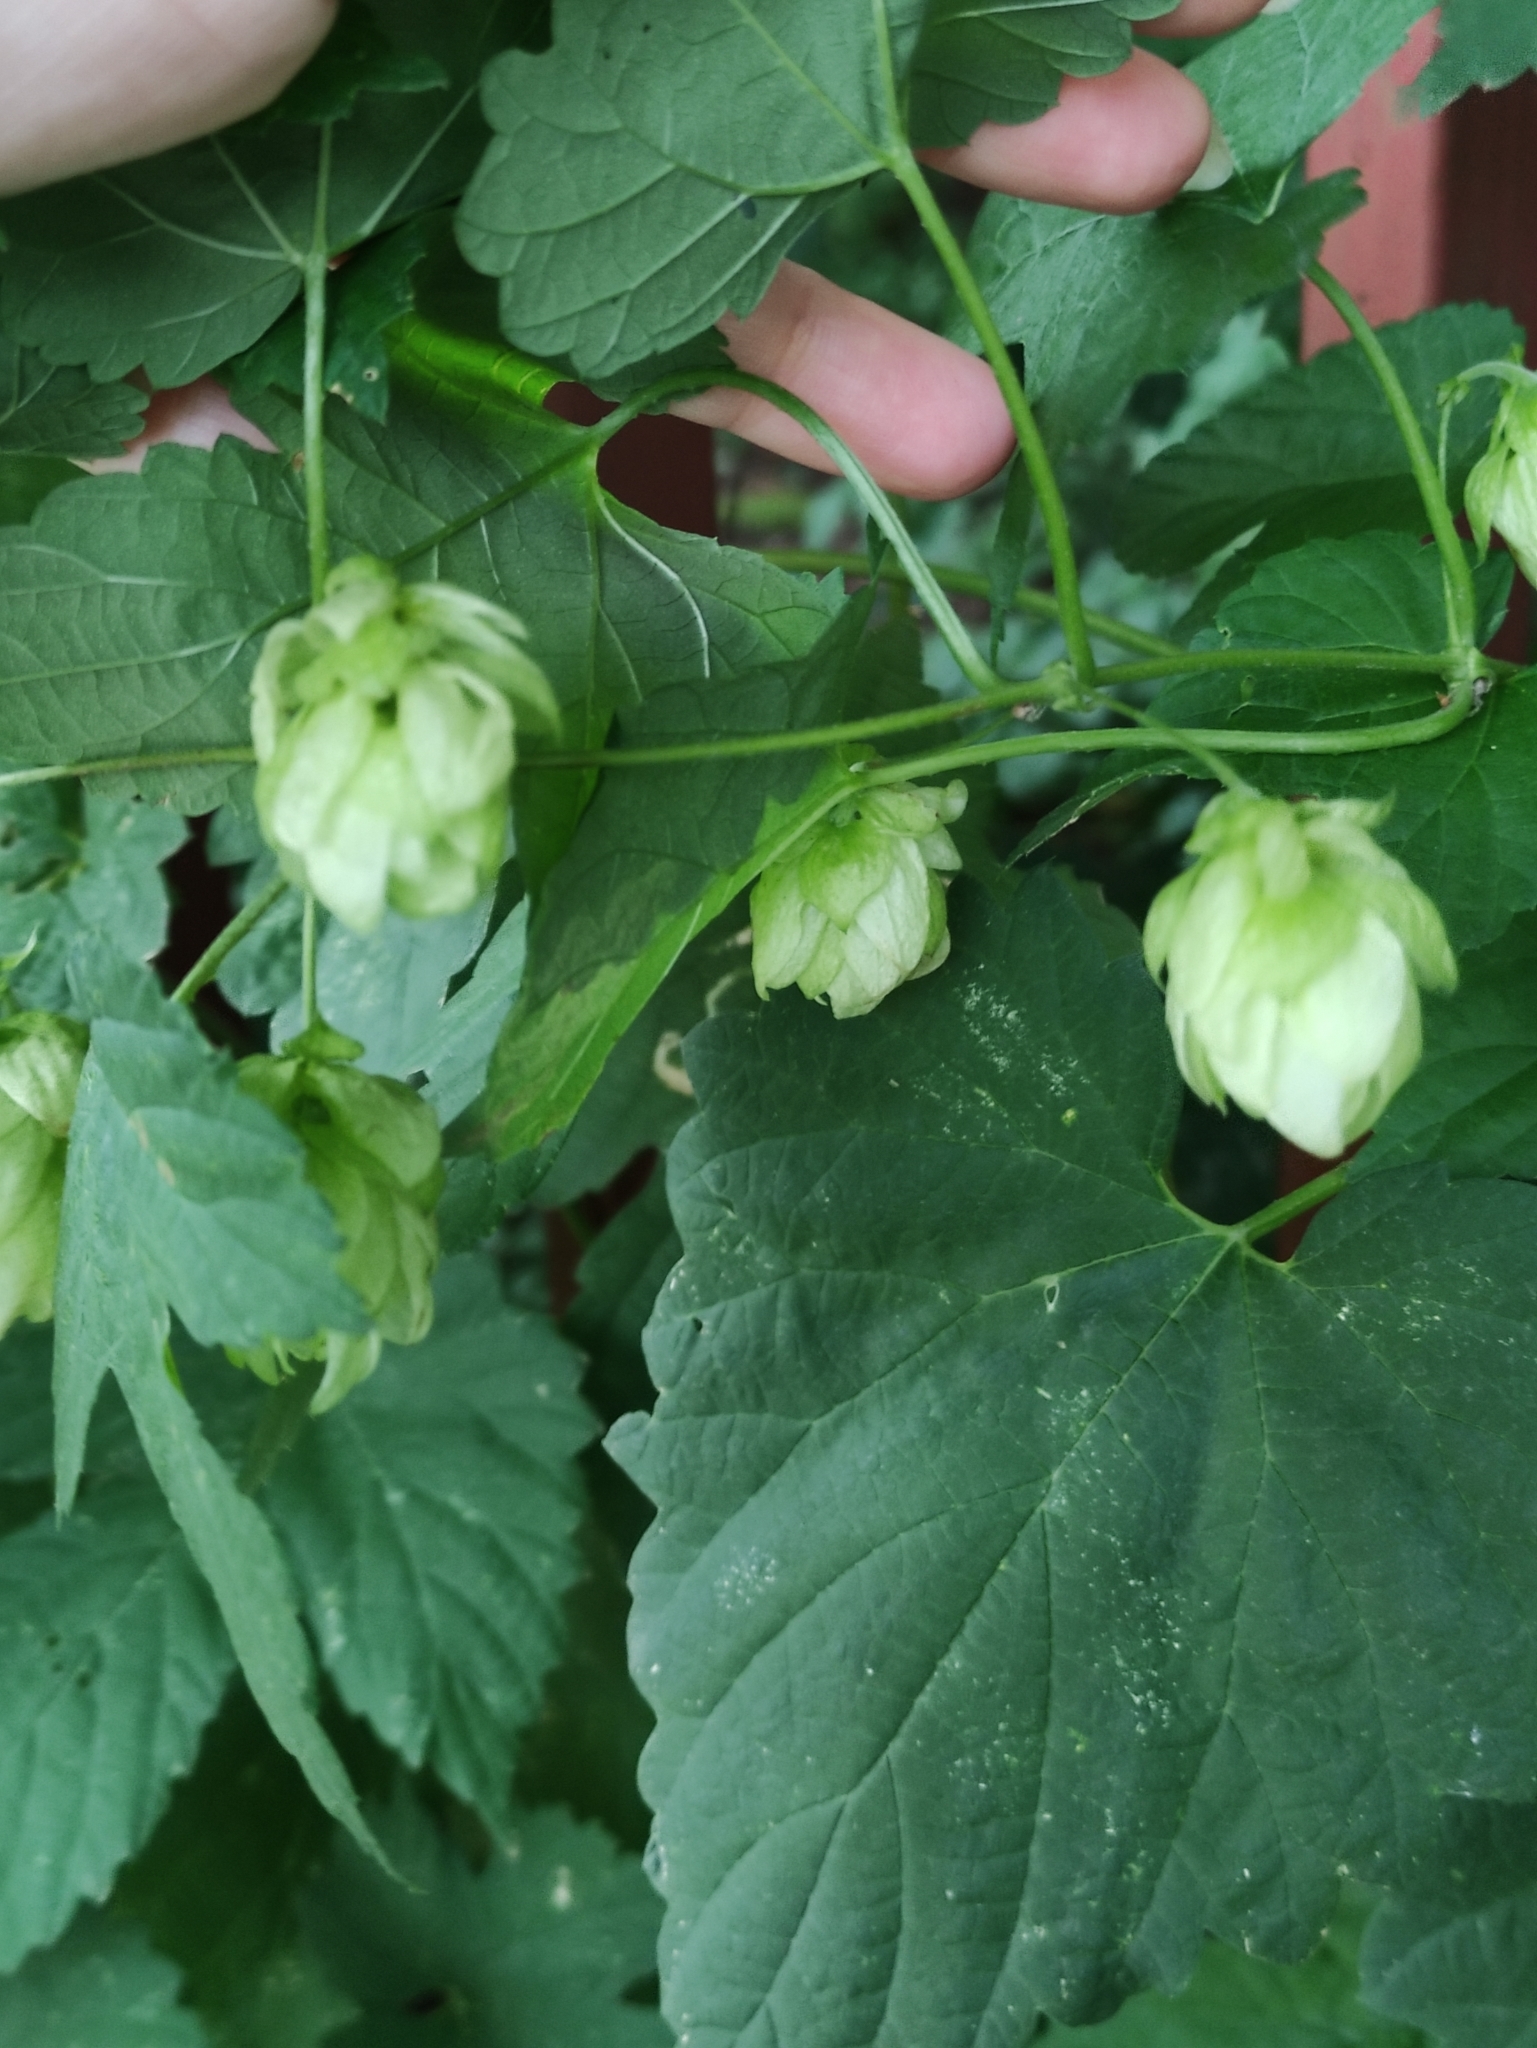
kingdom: Plantae
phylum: Tracheophyta
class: Magnoliopsida
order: Rosales
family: Cannabaceae
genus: Humulus
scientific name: Humulus lupulus
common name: Hop
